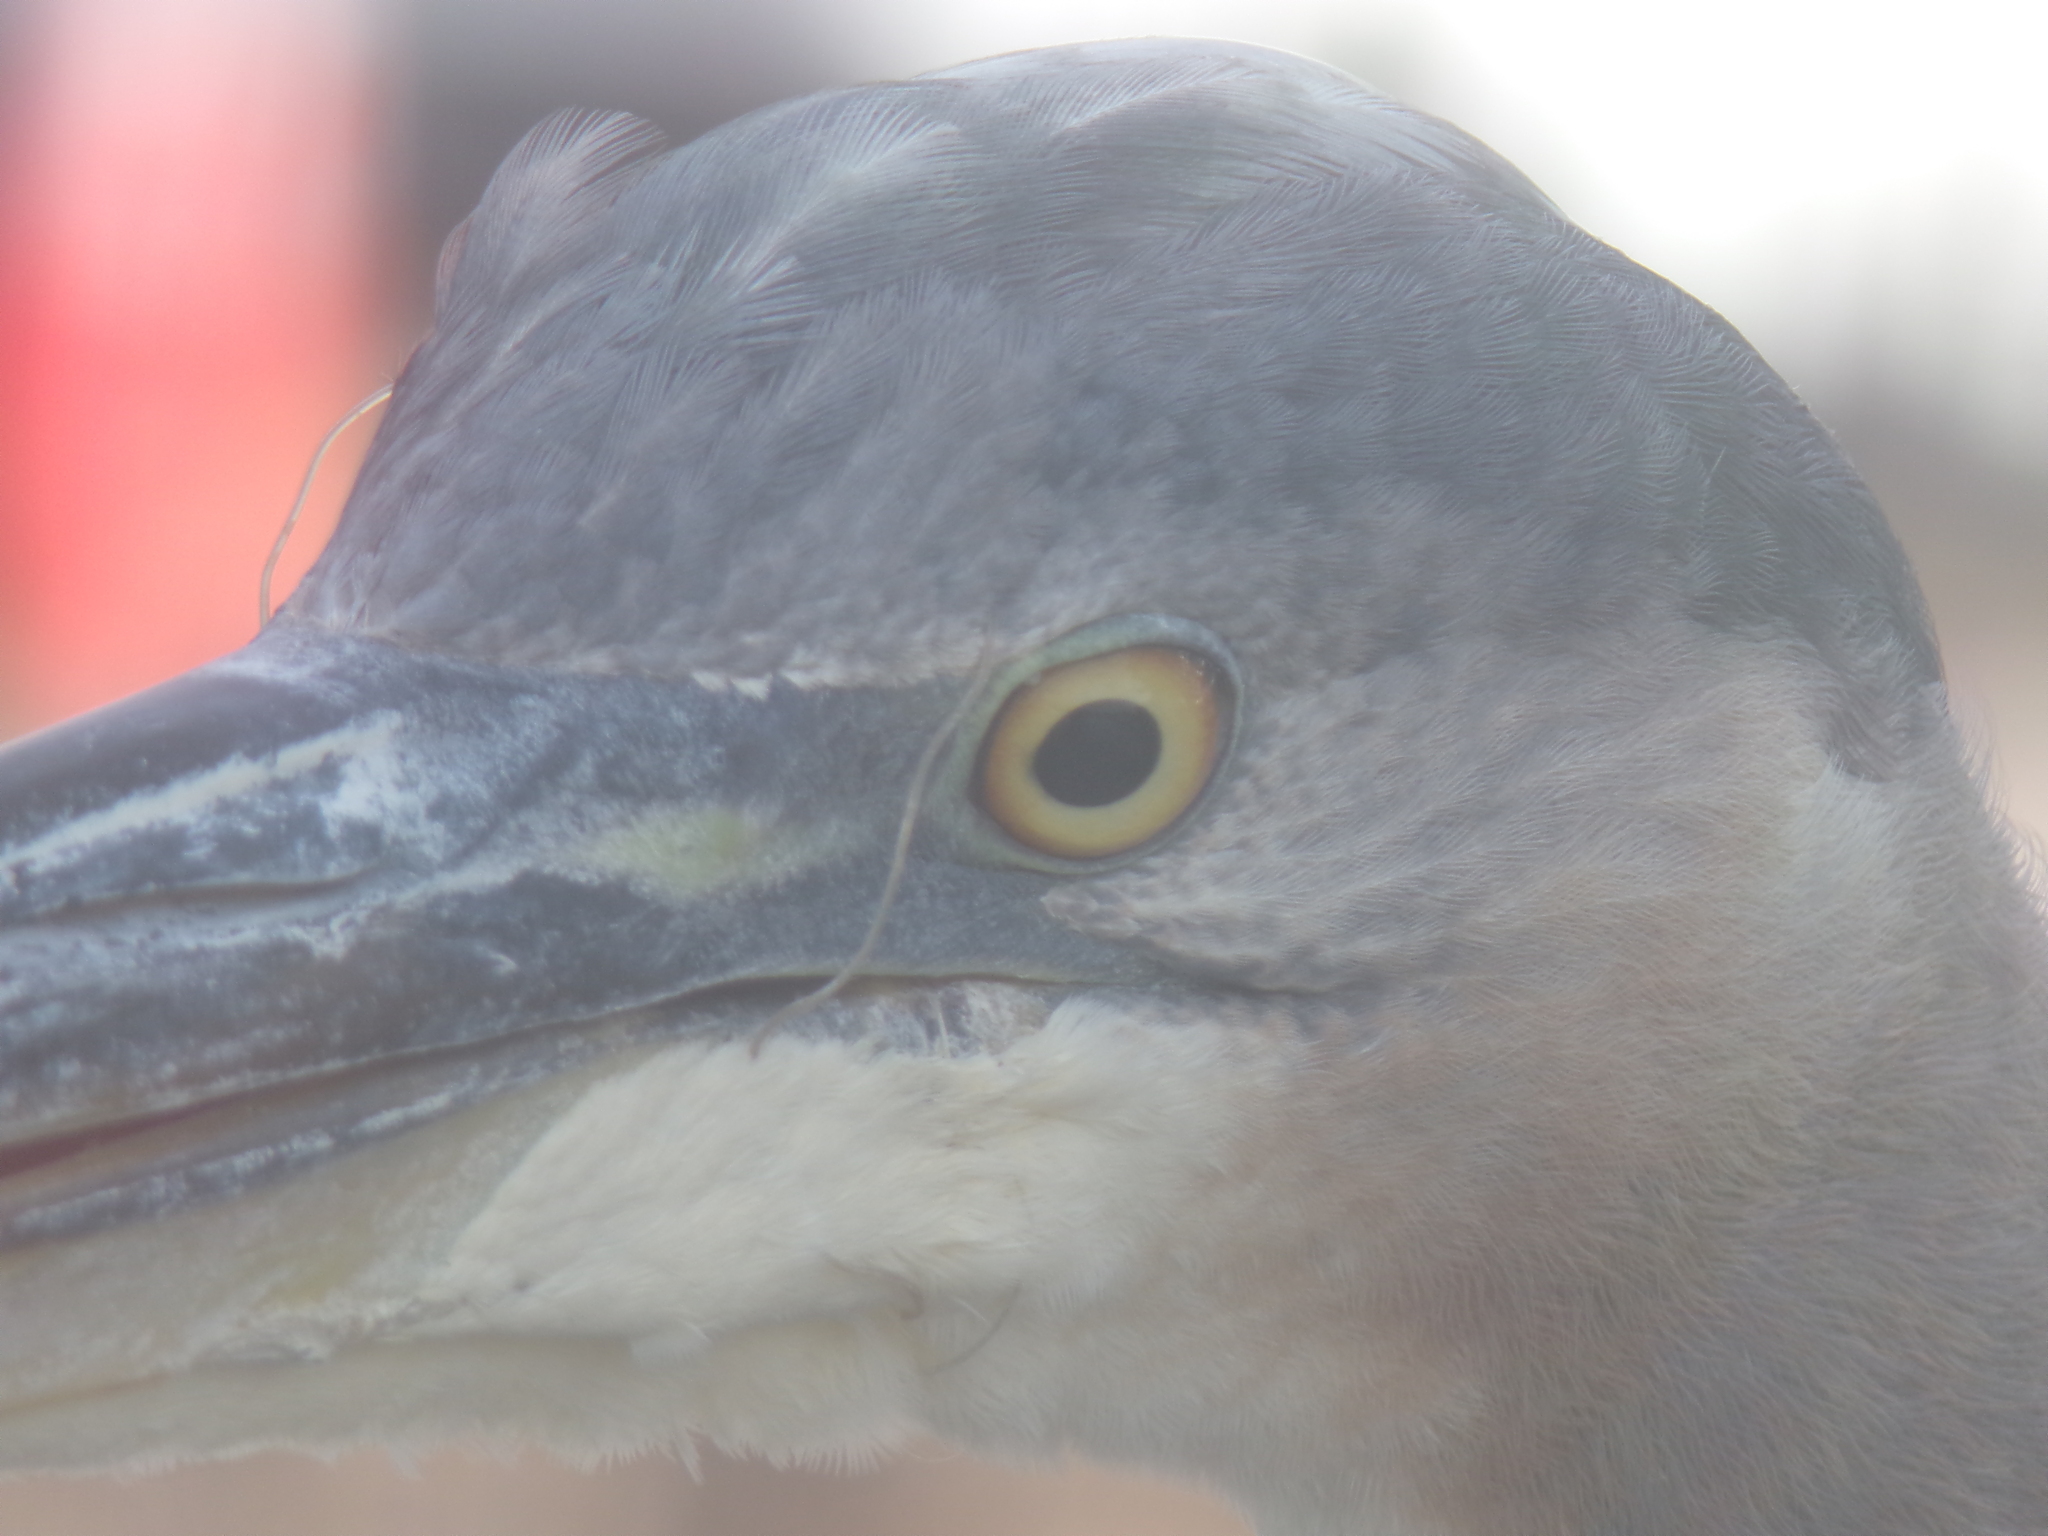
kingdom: Animalia
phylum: Chordata
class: Aves
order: Pelecaniformes
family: Ardeidae
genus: Ardea
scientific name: Ardea herodias
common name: Great blue heron
